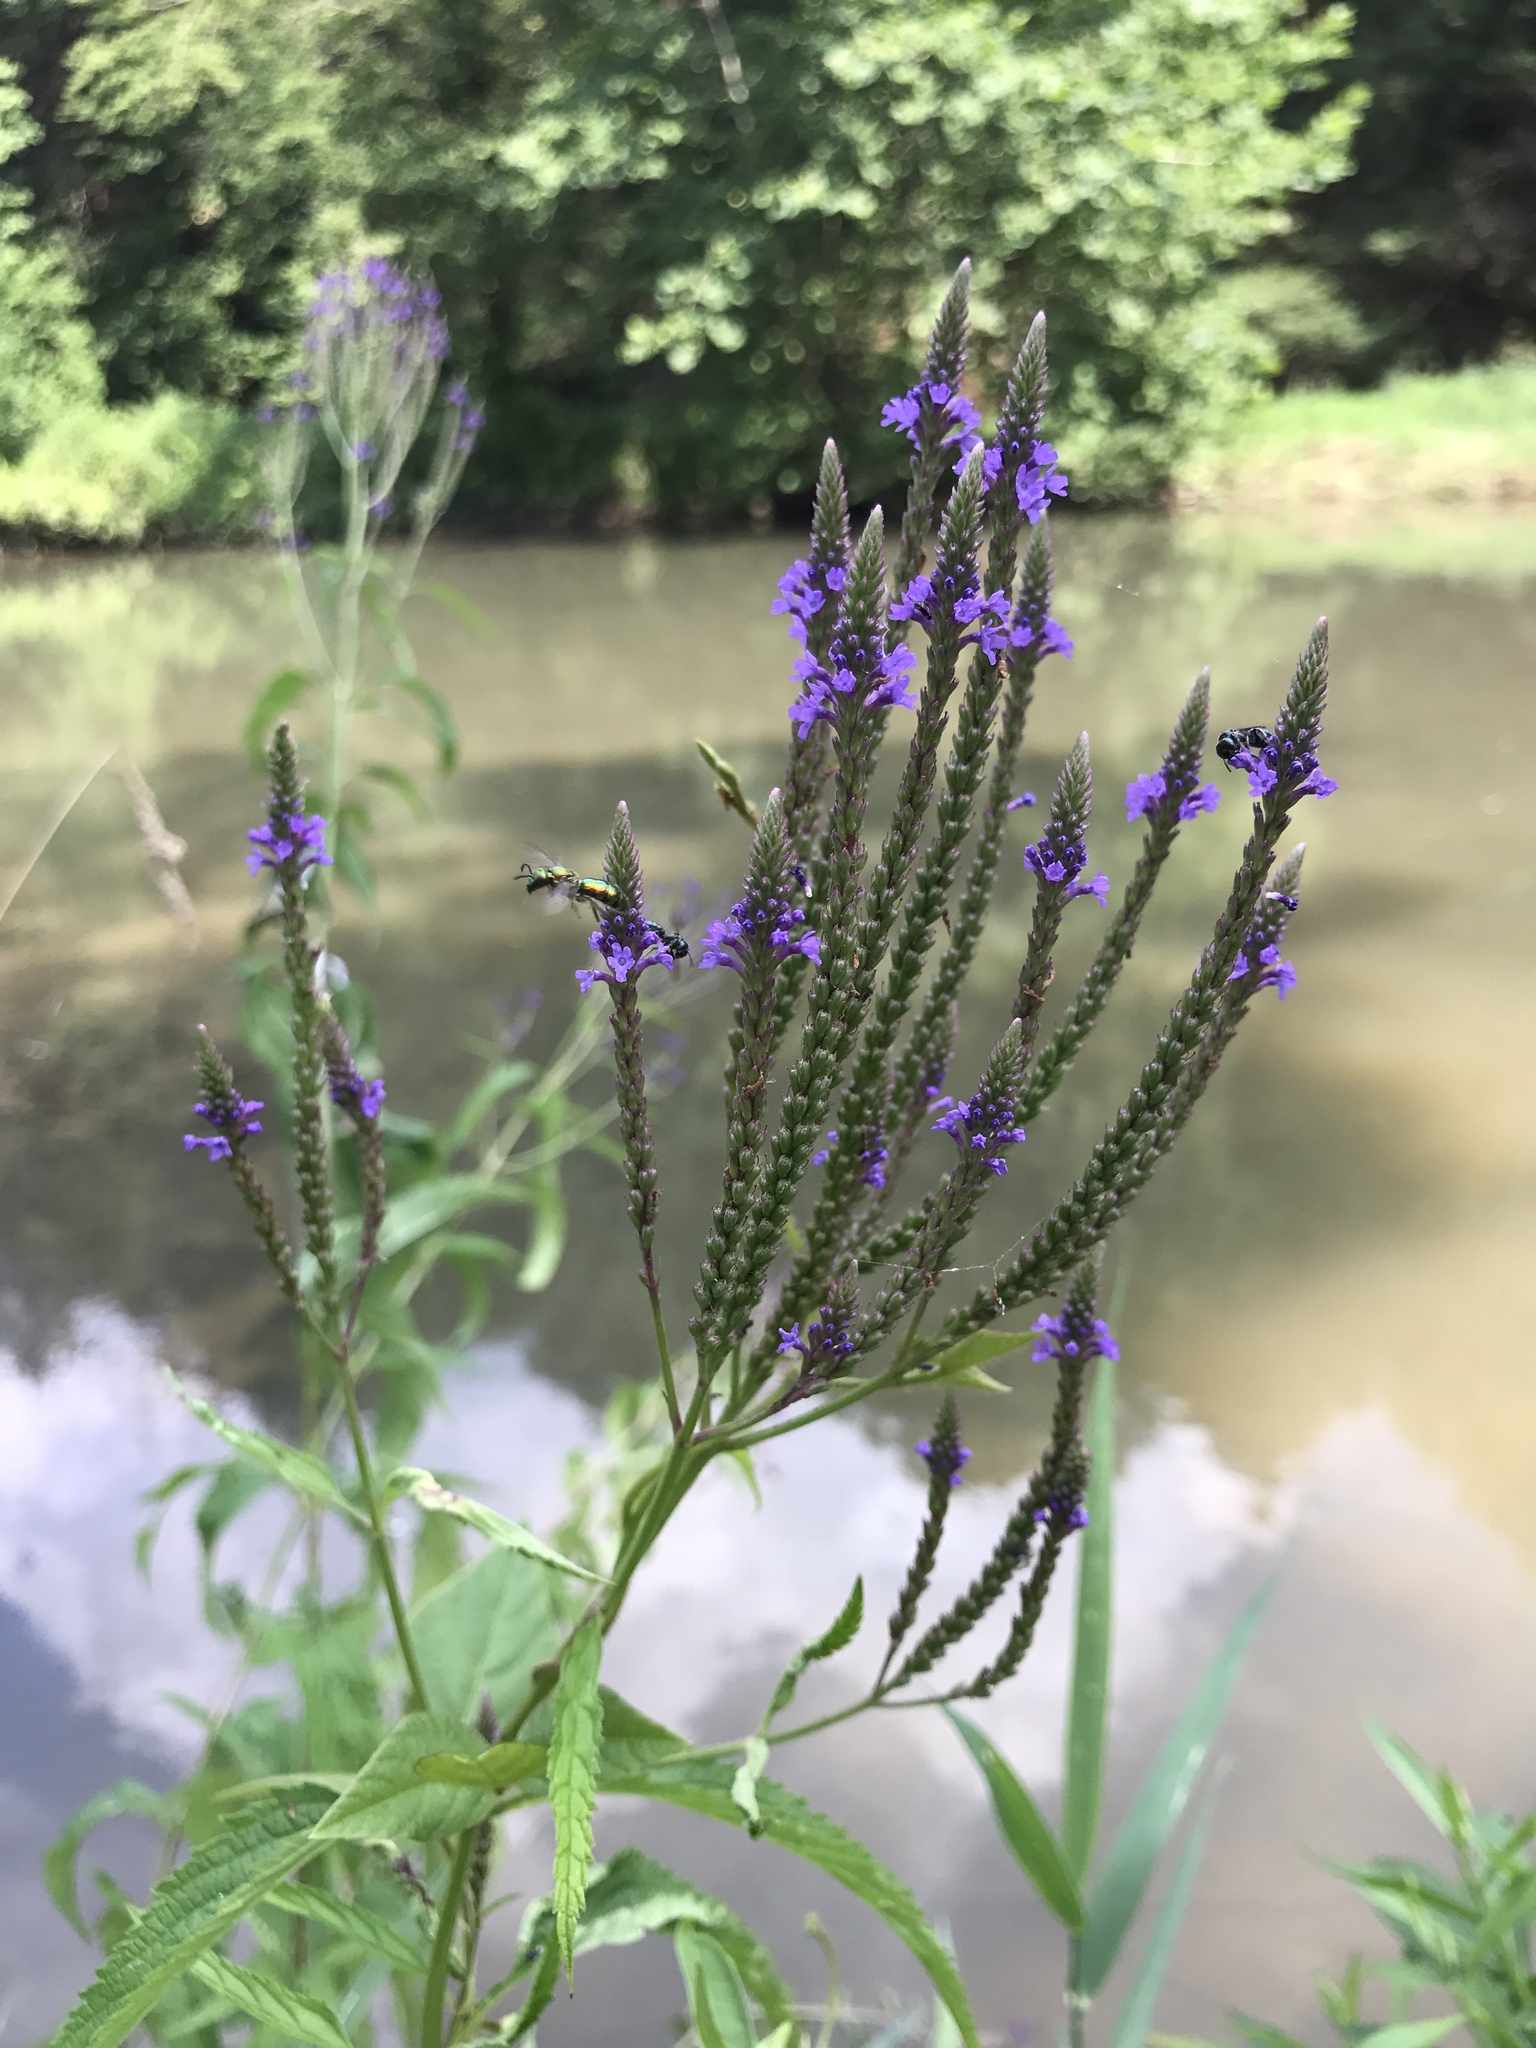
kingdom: Plantae
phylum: Tracheophyta
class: Magnoliopsida
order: Lamiales
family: Verbenaceae
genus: Verbena
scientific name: Verbena hastata
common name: American blue vervain
